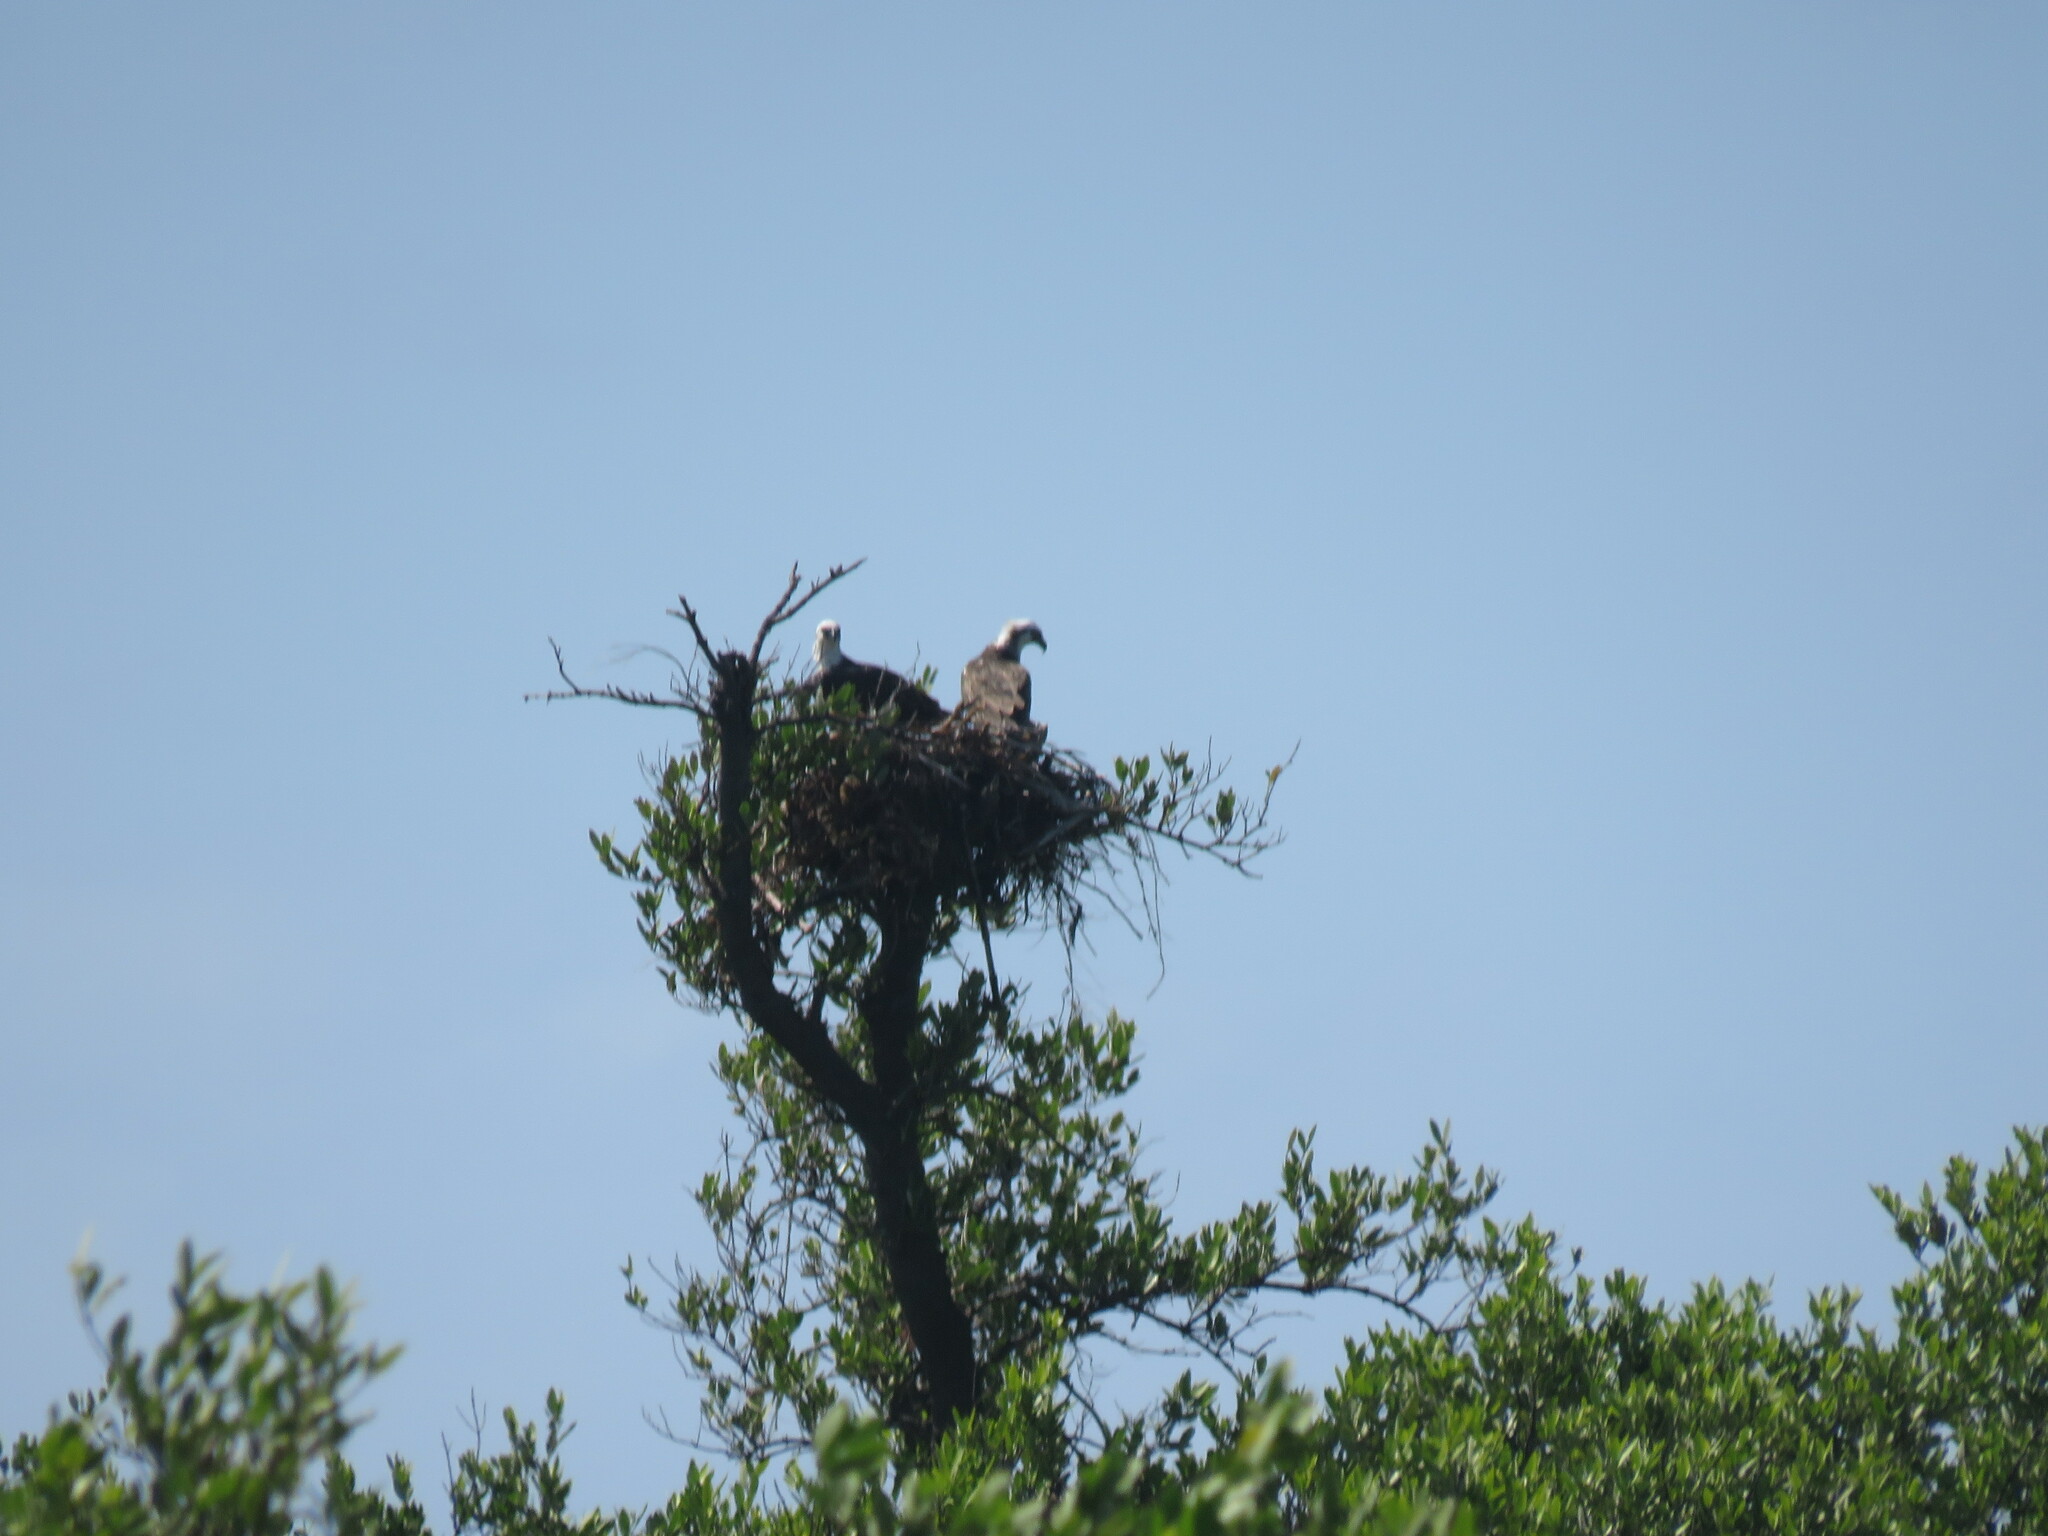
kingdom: Animalia
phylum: Chordata
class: Aves
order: Accipitriformes
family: Pandionidae
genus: Pandion
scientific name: Pandion haliaetus
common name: Osprey
